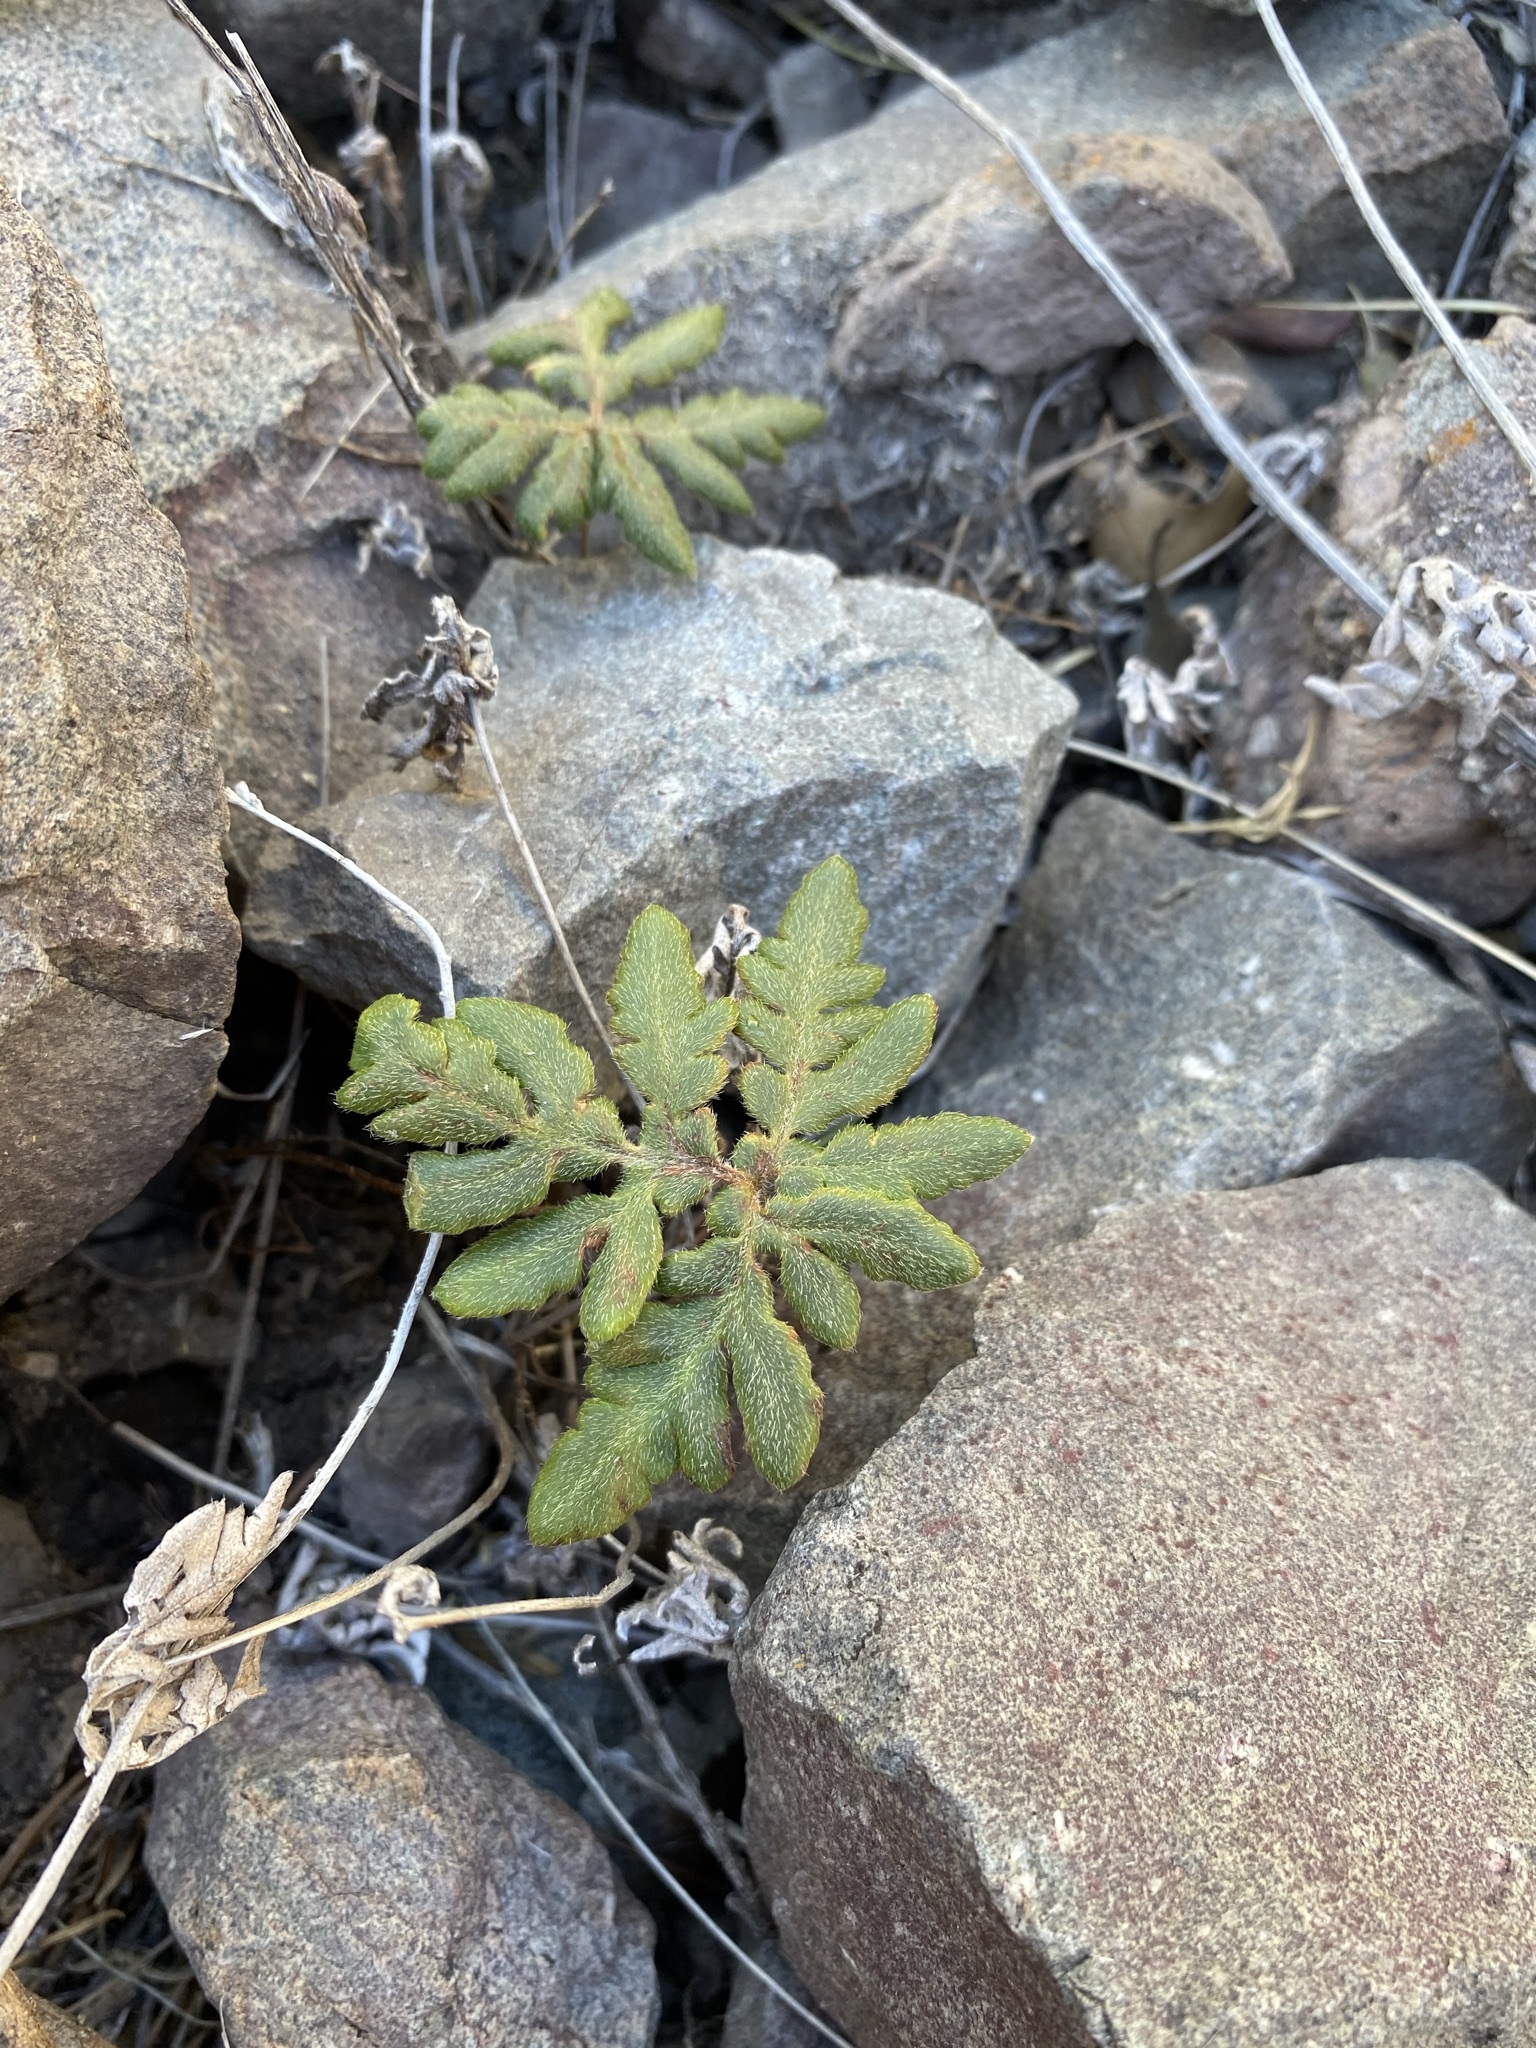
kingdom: Plantae
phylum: Tracheophyta
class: Polypodiopsida
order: Polypodiales
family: Pteridaceae
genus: Bommeria
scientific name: Bommeria hispida
